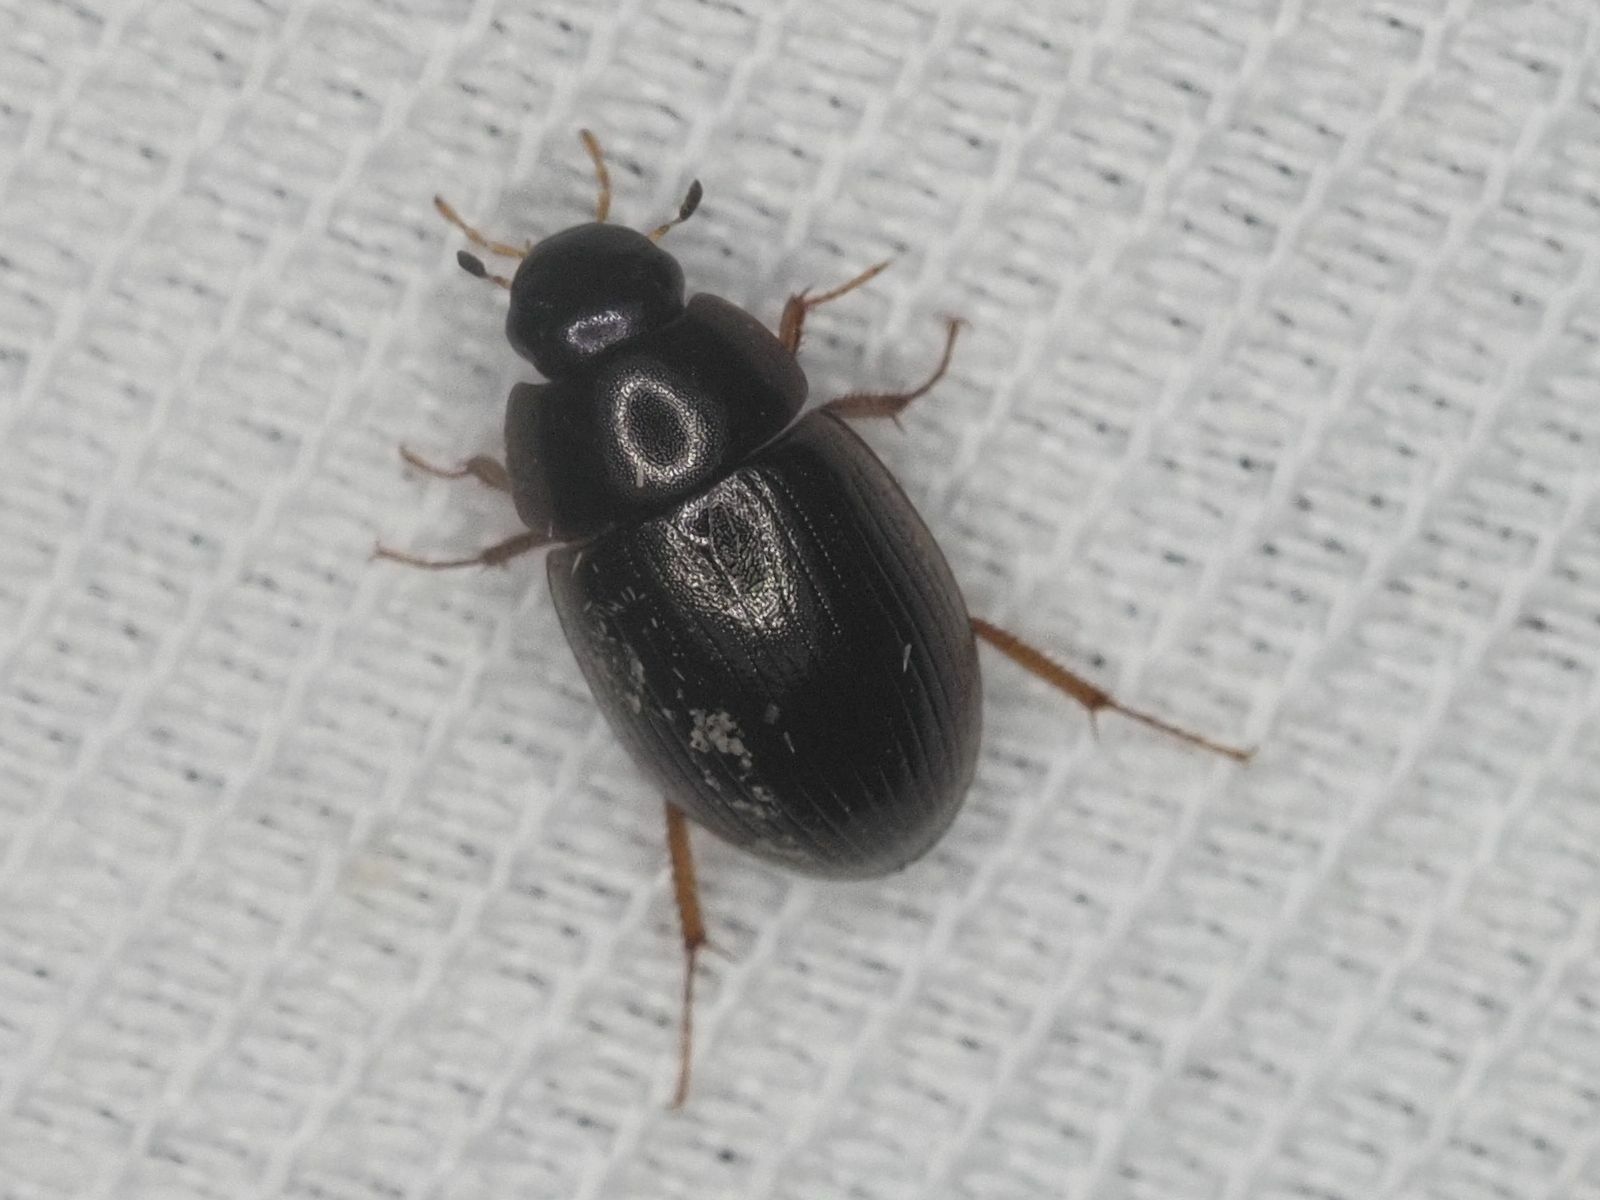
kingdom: Animalia
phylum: Arthropoda
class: Insecta
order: Coleoptera
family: Hydrophilidae
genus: Hydrobius
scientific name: Hydrobius
